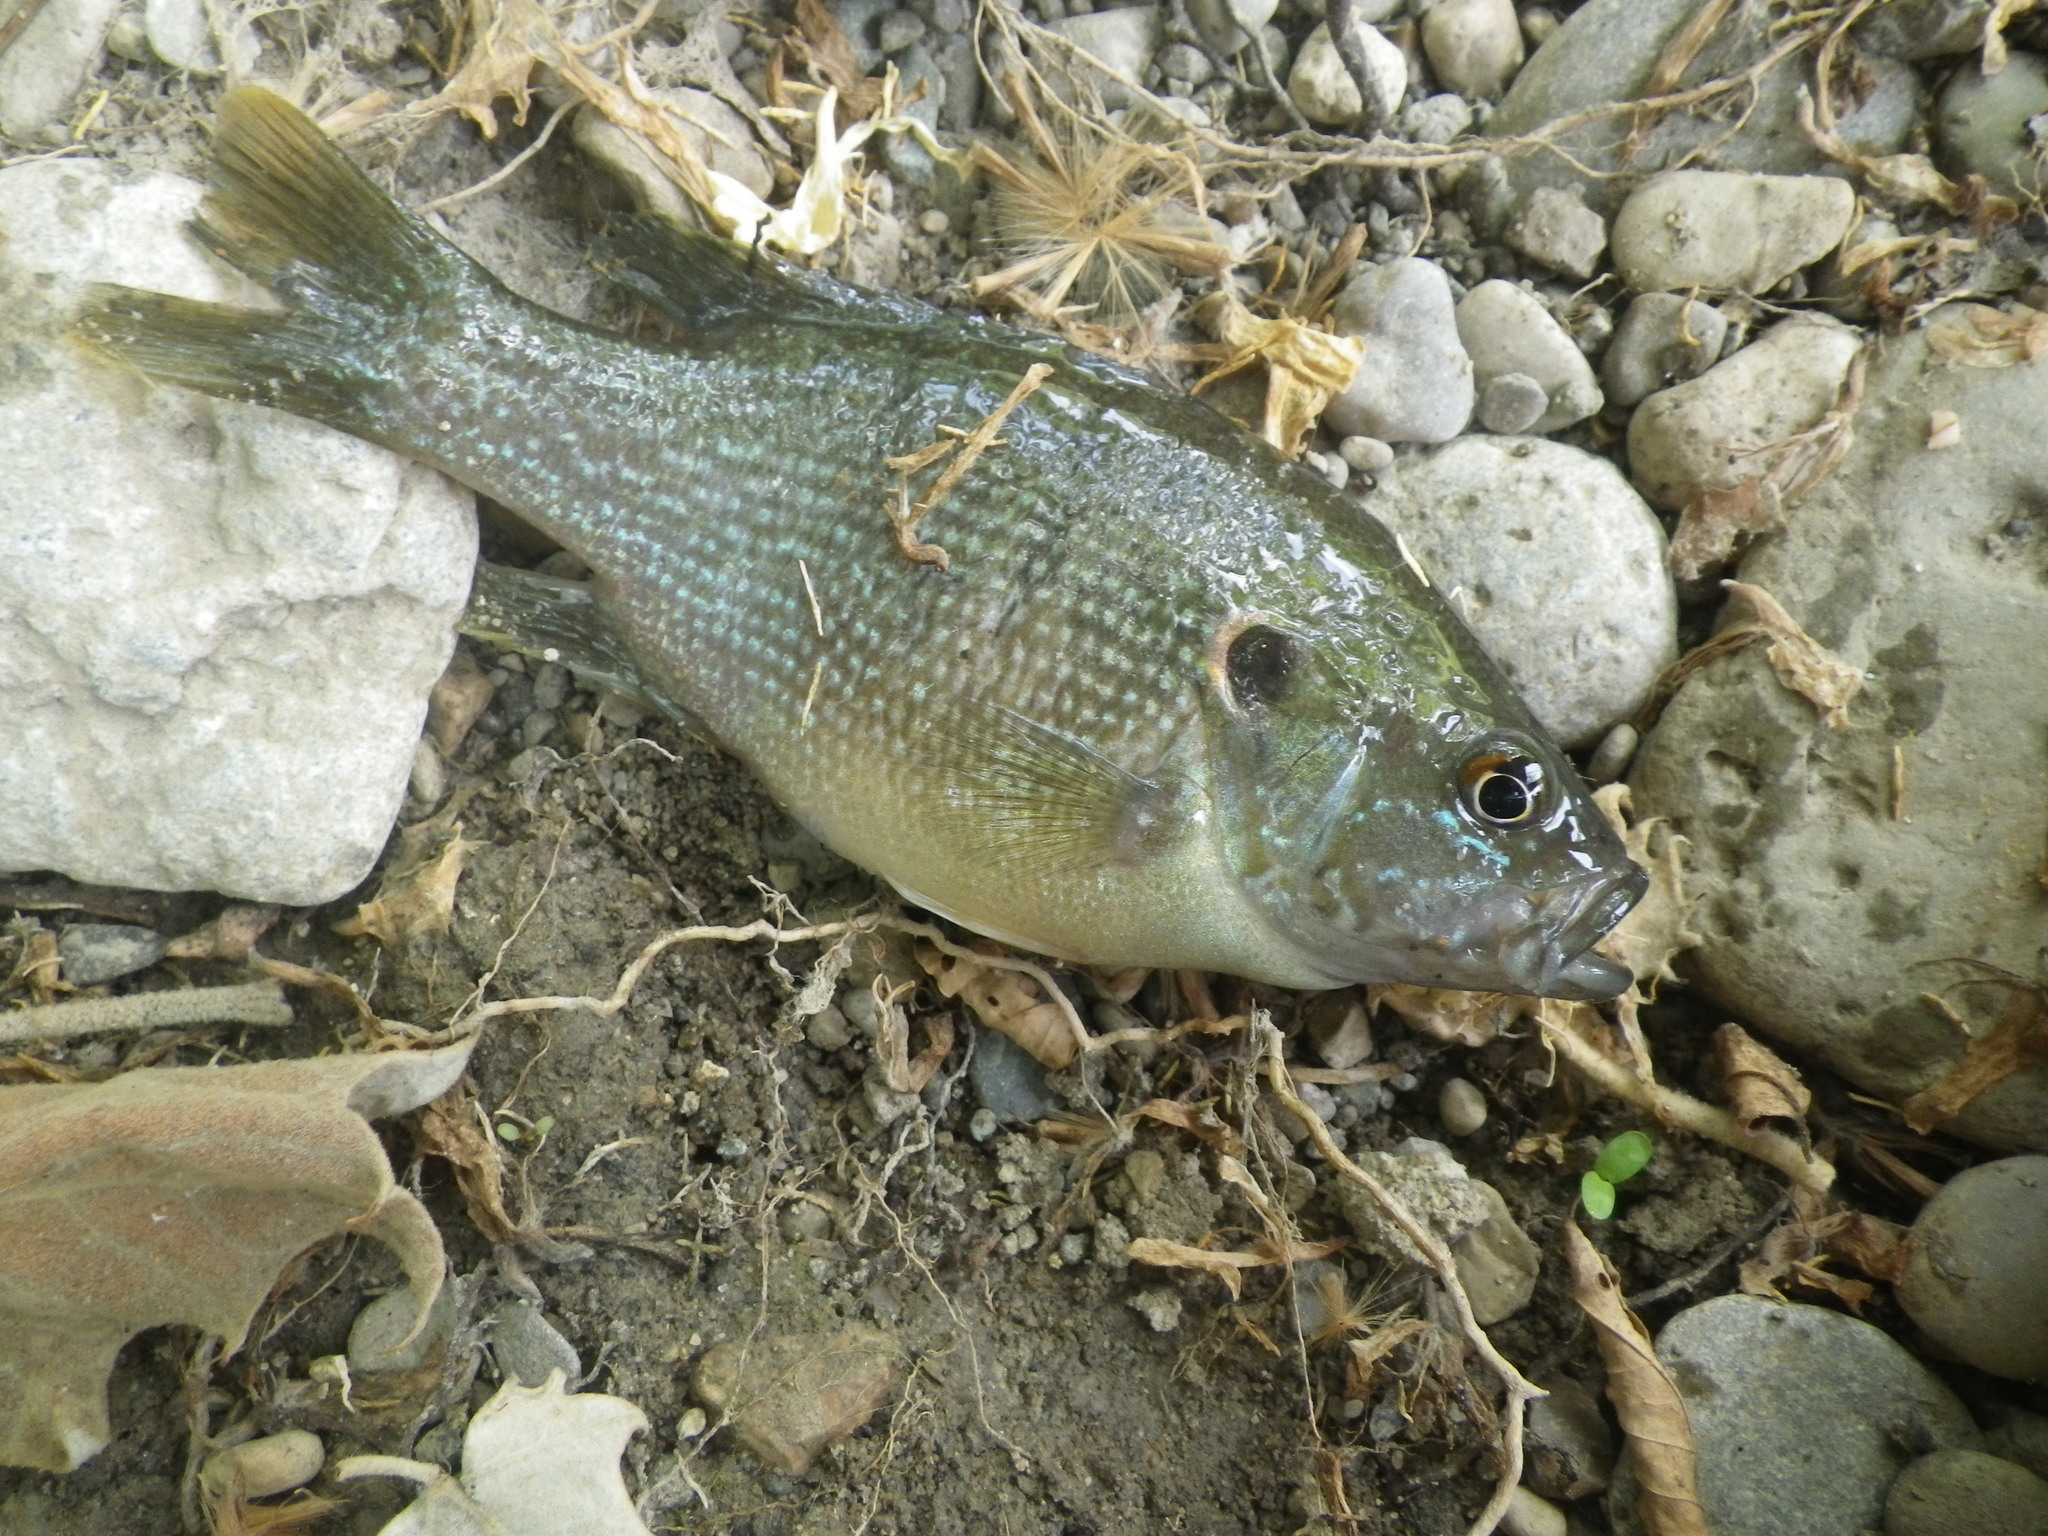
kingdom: Animalia
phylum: Chordata
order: Perciformes
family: Centrarchidae
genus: Lepomis
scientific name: Lepomis cyanellus
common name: Green sunfish
